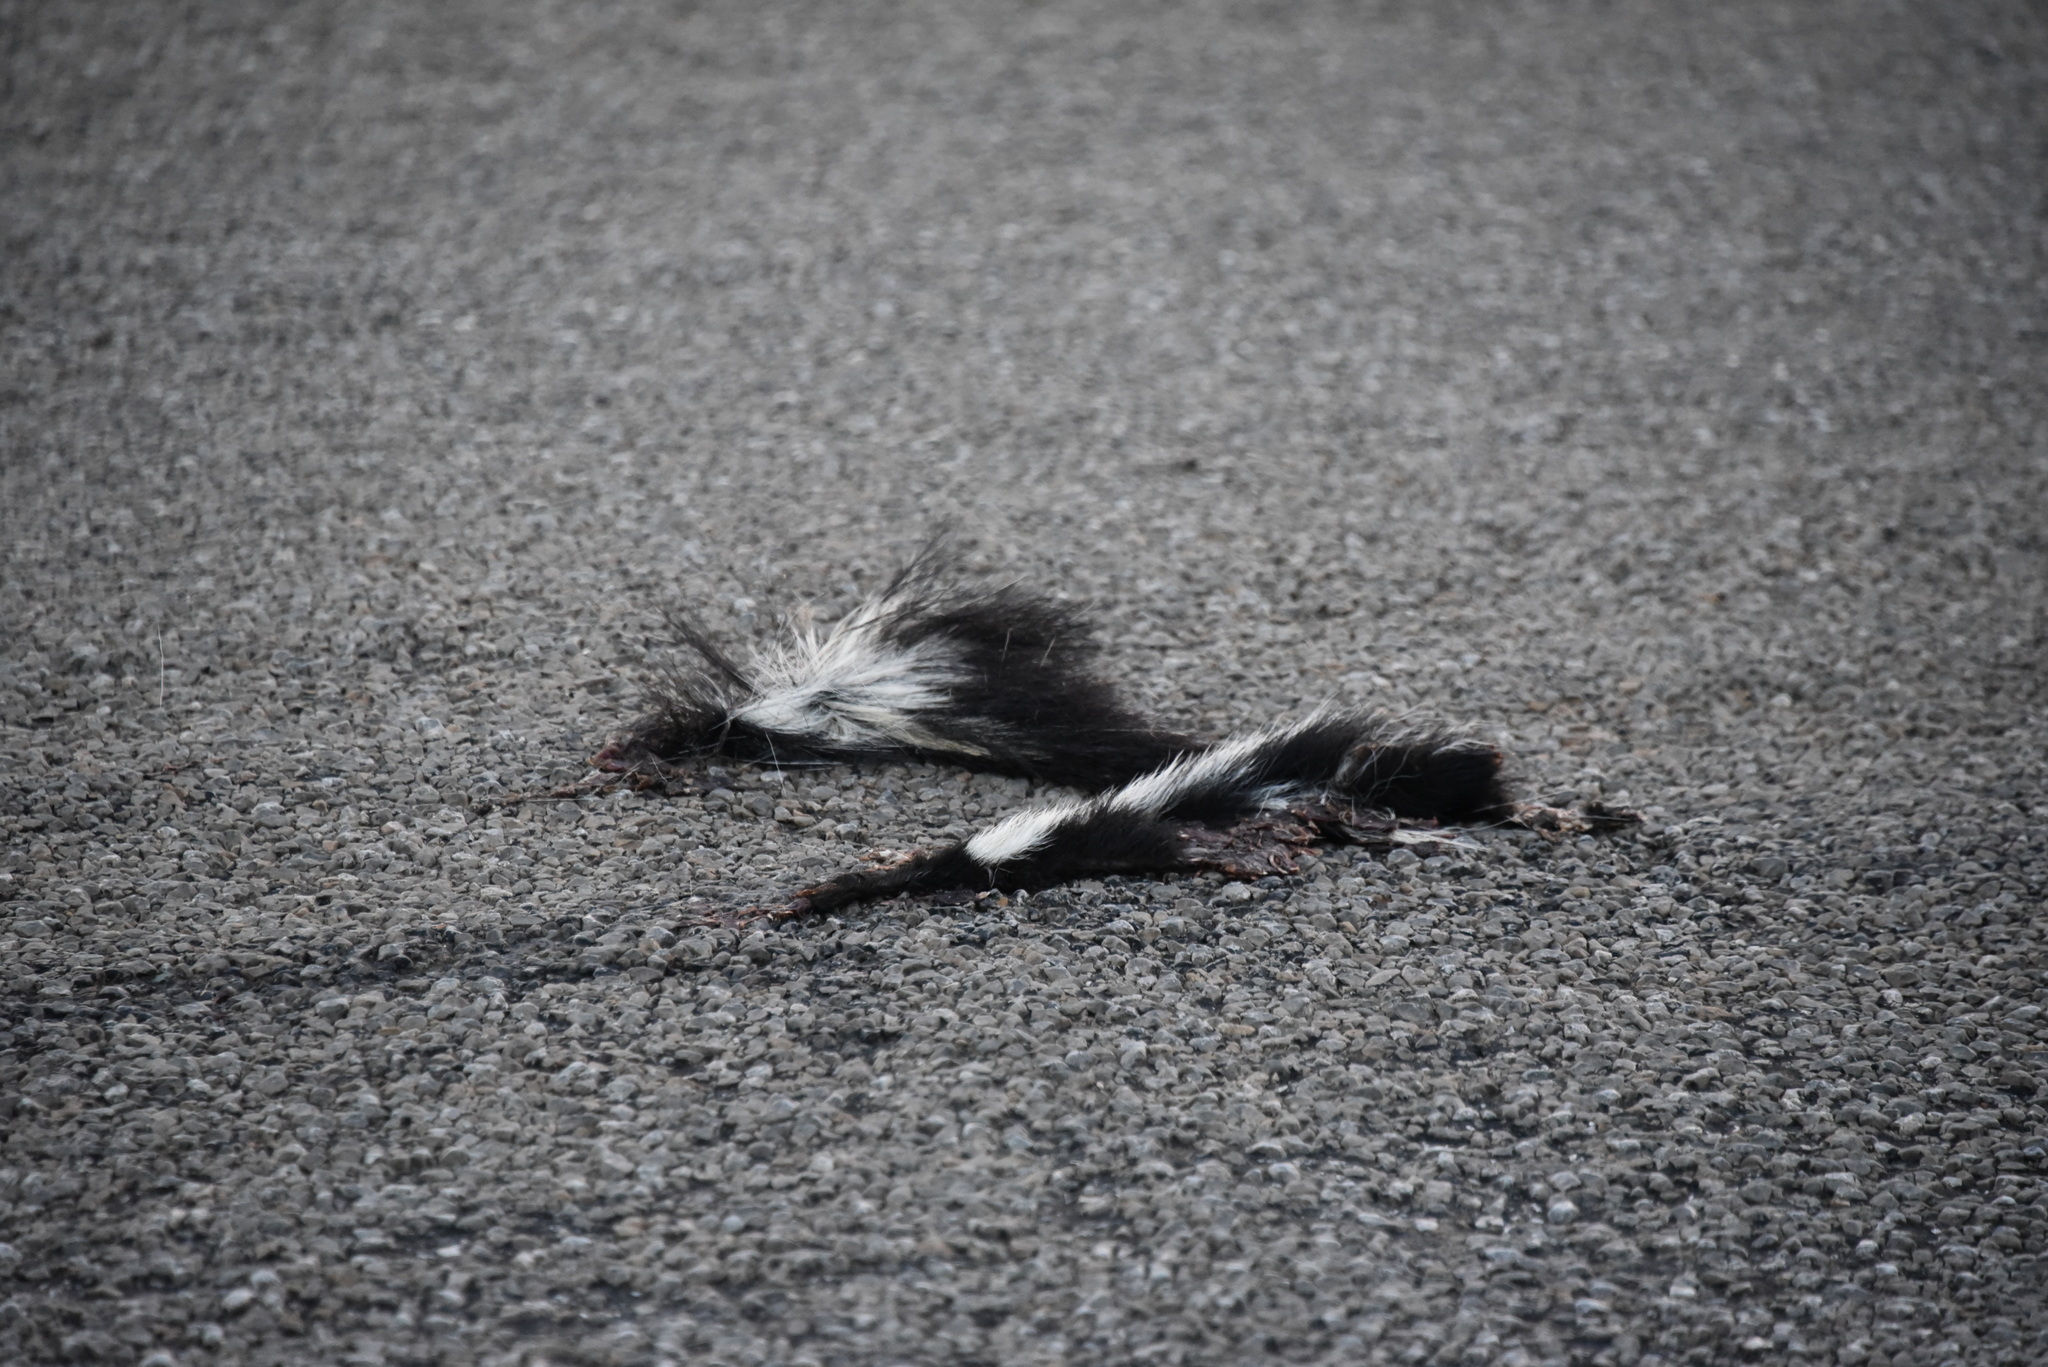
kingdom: Animalia
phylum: Chordata
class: Mammalia
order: Carnivora
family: Mephitidae
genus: Mephitis
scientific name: Mephitis mephitis
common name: Striped skunk
